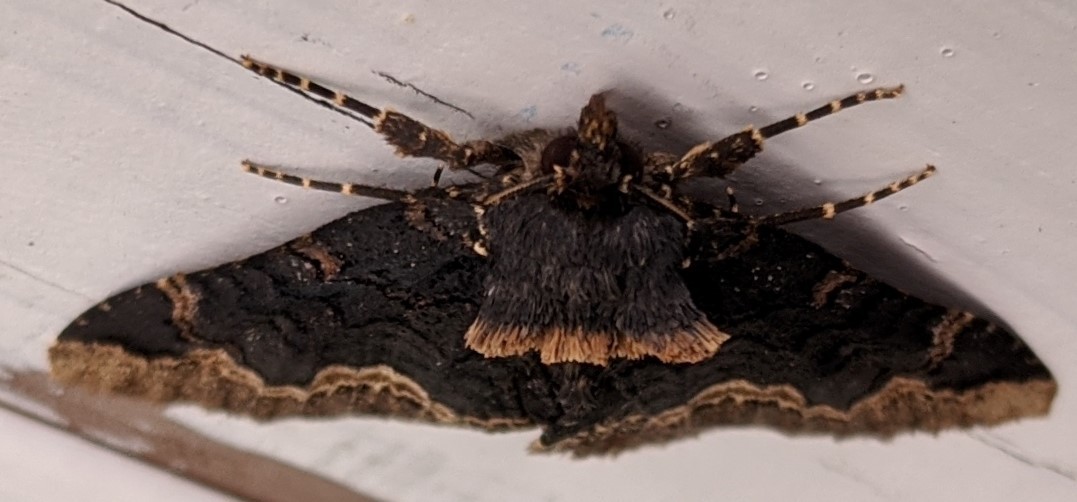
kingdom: Animalia
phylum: Arthropoda
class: Insecta
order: Lepidoptera
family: Erebidae
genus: Zale
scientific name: Zale horrida
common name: Horrid zale moth
